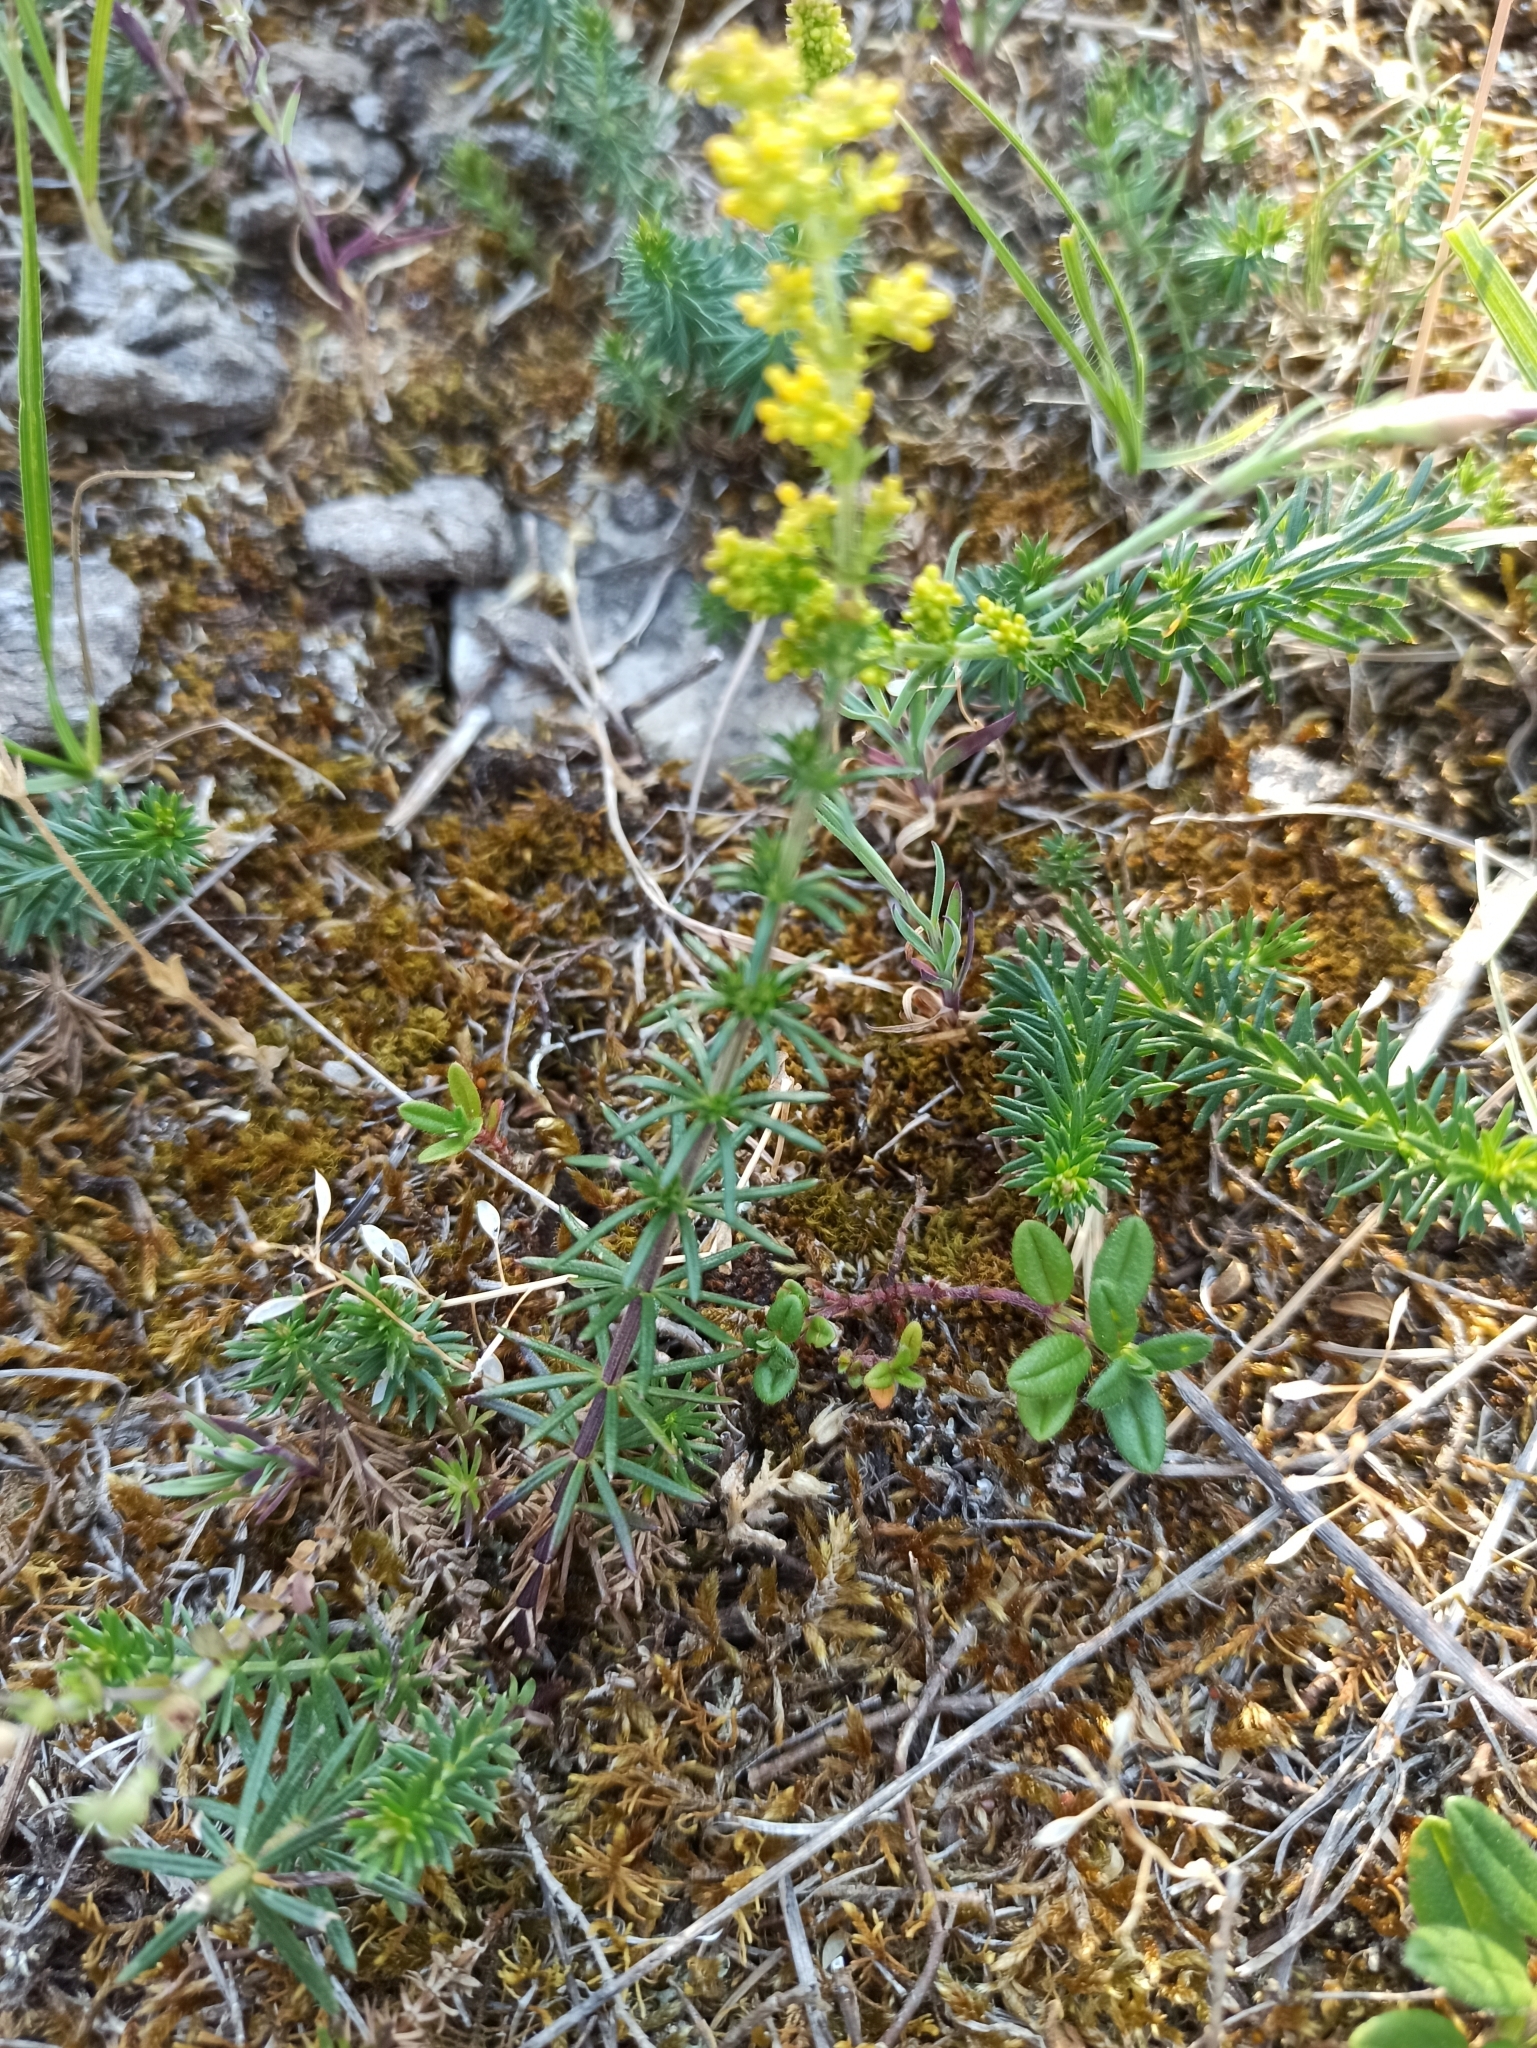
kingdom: Plantae
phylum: Tracheophyta
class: Magnoliopsida
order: Gentianales
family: Rubiaceae
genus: Galium
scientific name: Galium verum
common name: Lady's bedstraw
